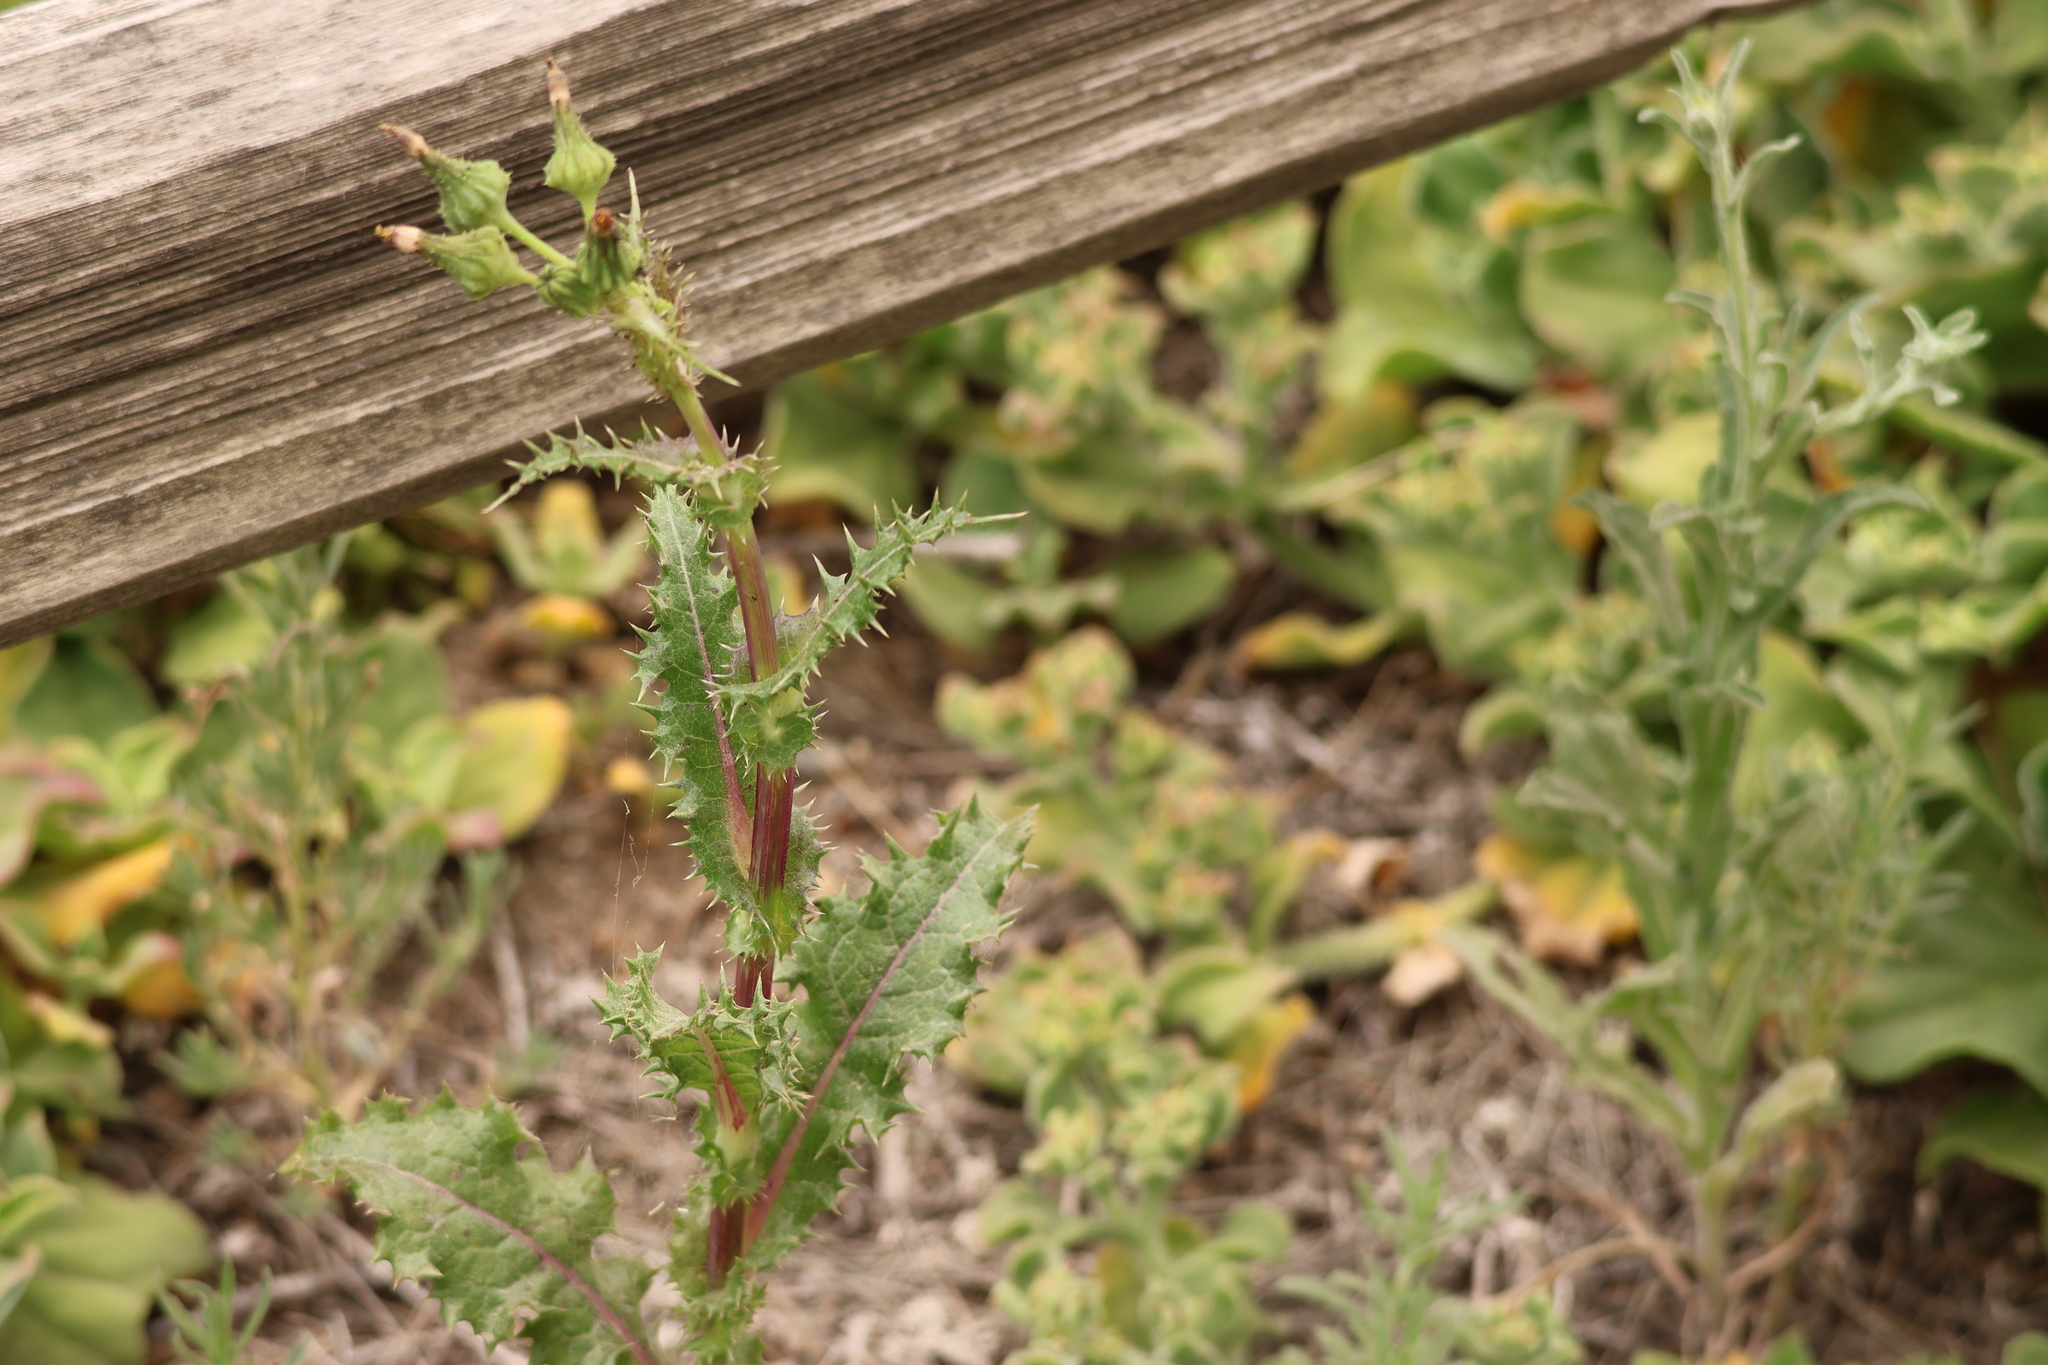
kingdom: Plantae
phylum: Tracheophyta
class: Magnoliopsida
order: Asterales
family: Asteraceae
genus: Sonchus
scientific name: Sonchus asper
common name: Prickly sow-thistle
